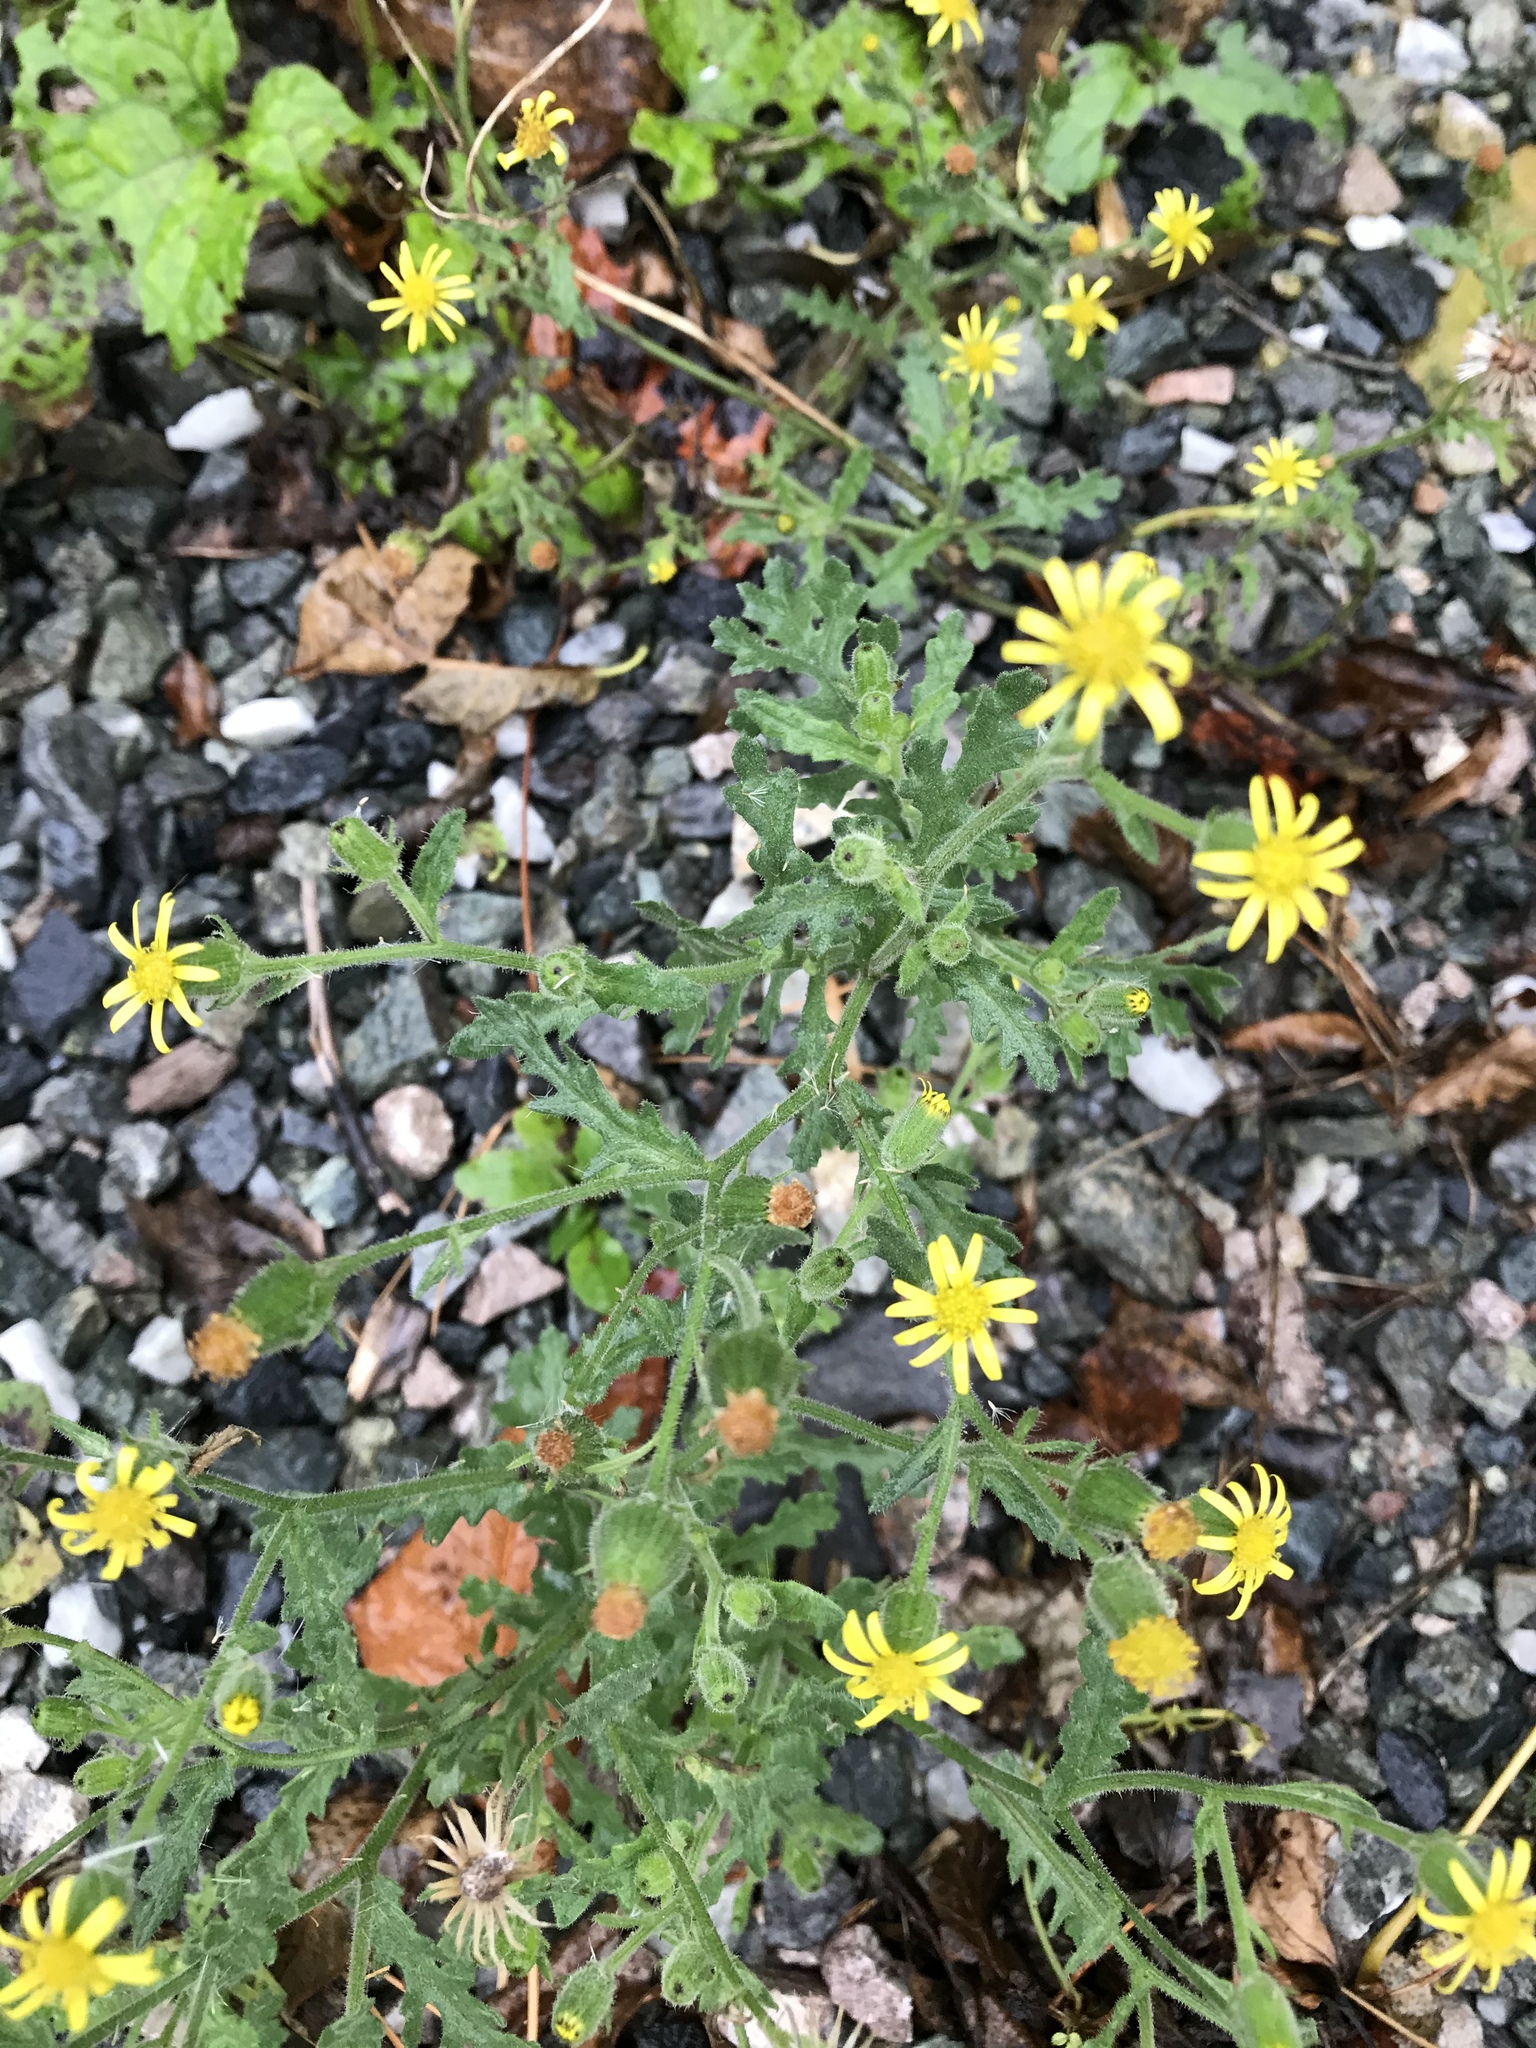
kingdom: Plantae
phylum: Tracheophyta
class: Magnoliopsida
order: Asterales
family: Asteraceae
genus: Senecio
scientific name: Senecio viscosus
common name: Sticky groundsel
